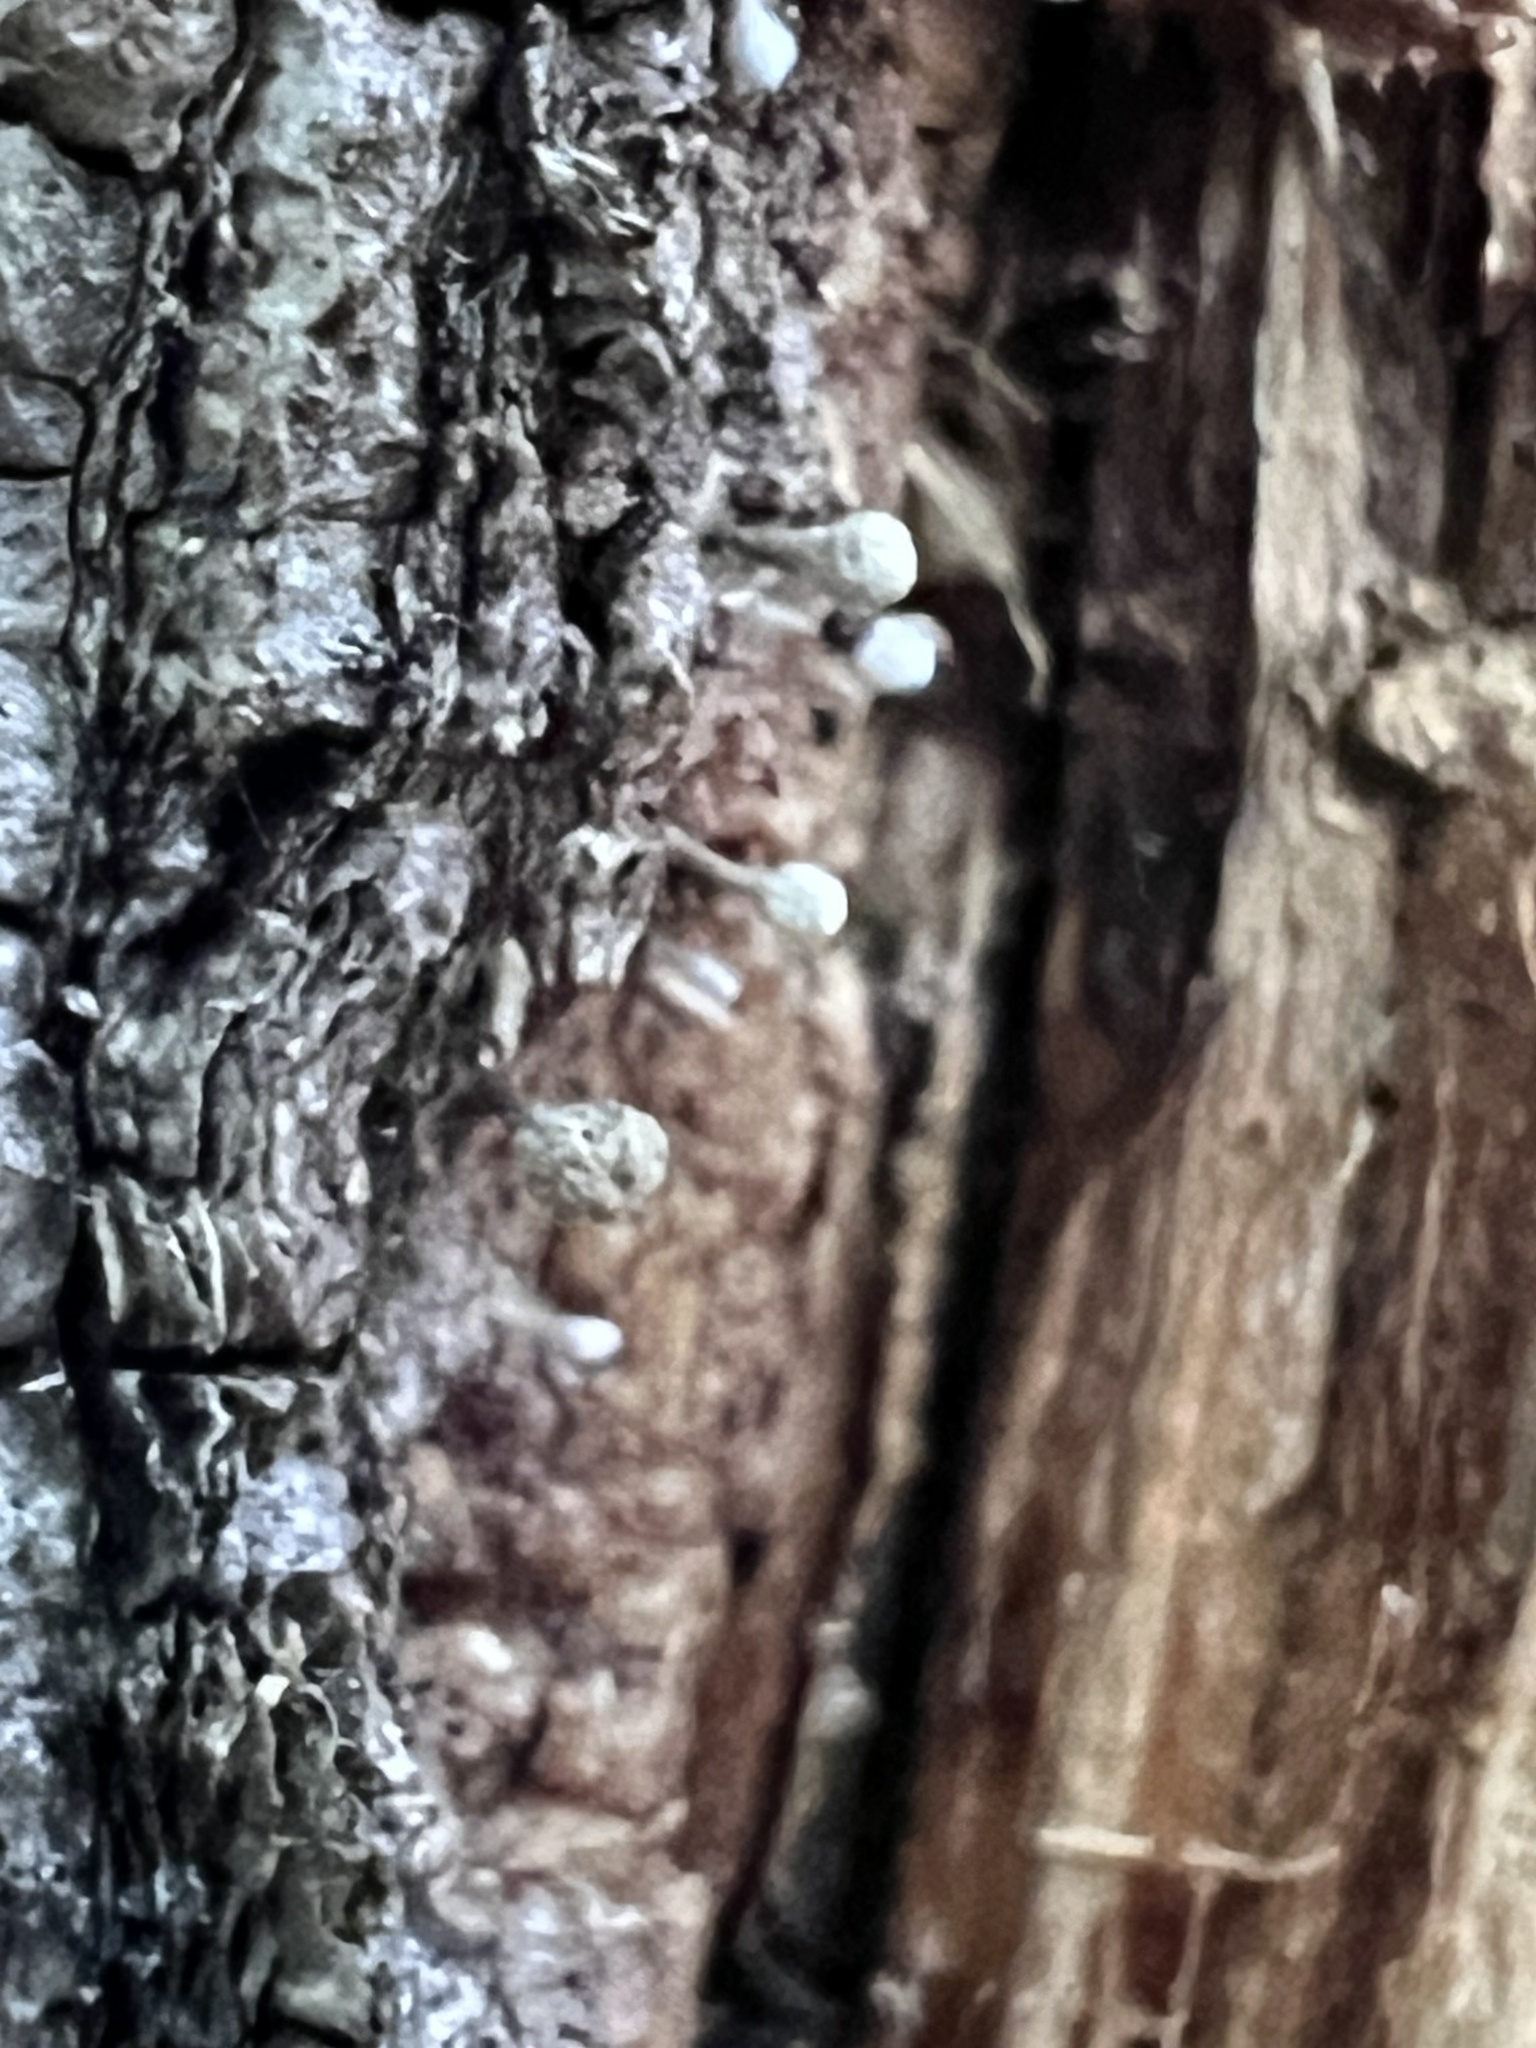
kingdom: Fungi
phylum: Basidiomycota
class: Atractiellomycetes
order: Atractiellales
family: Phleogenaceae
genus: Phleogena
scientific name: Phleogena faginea
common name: Fenugreek stalkball
